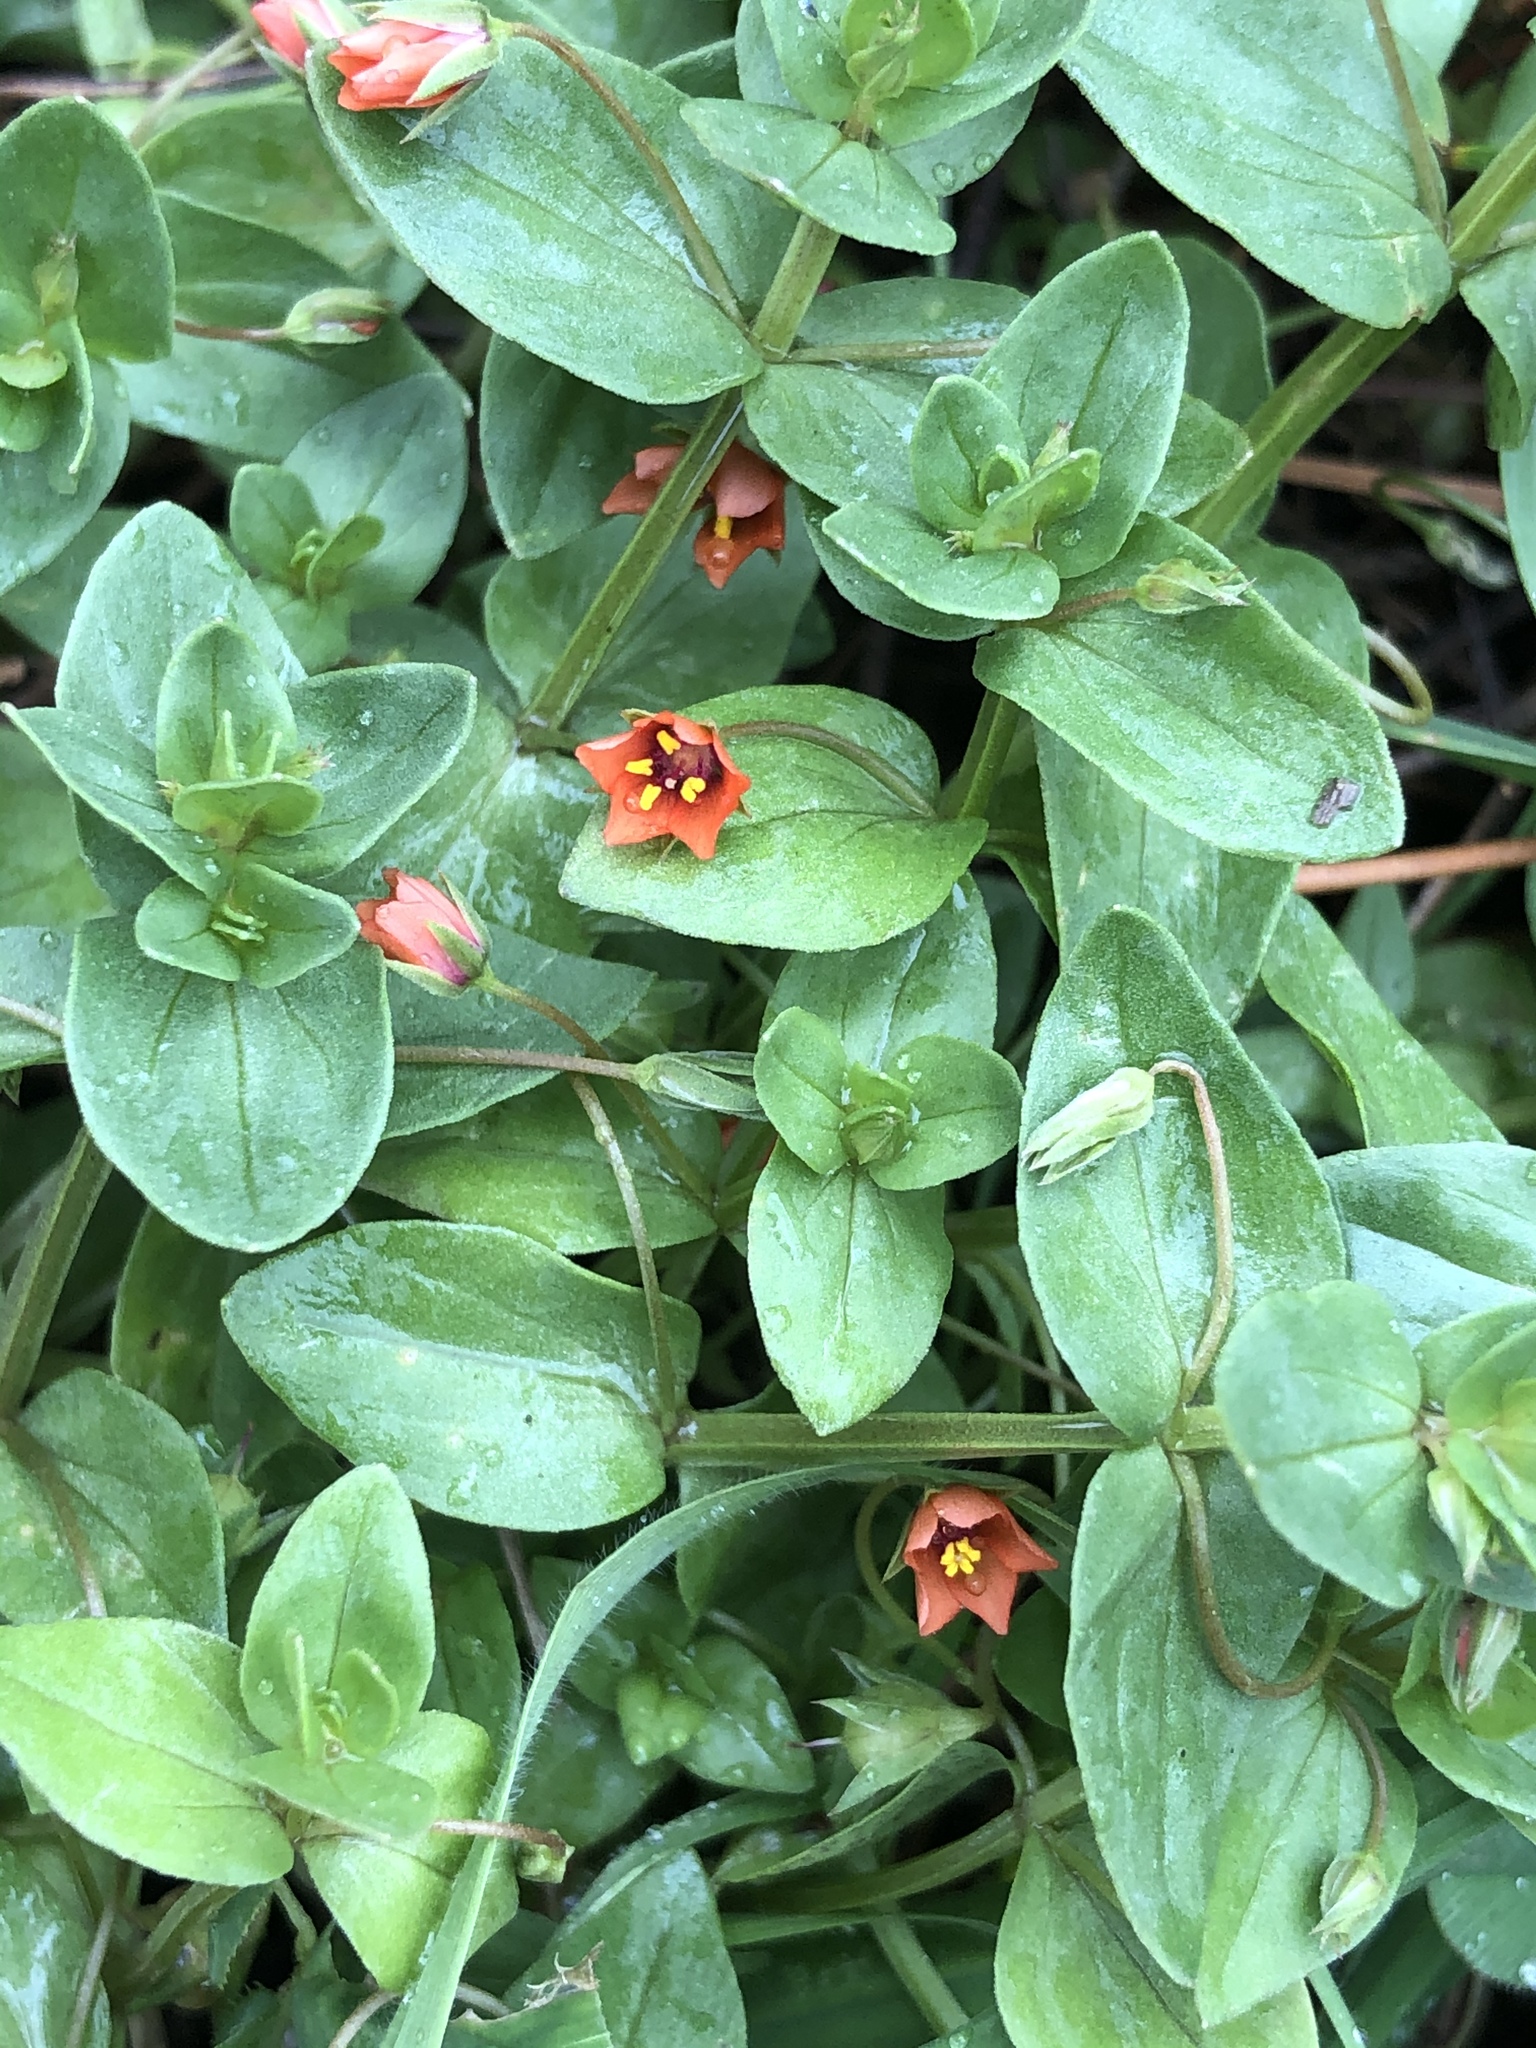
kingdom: Plantae
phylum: Tracheophyta
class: Magnoliopsida
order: Ericales
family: Primulaceae
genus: Lysimachia
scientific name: Lysimachia arvensis
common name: Scarlet pimpernel
